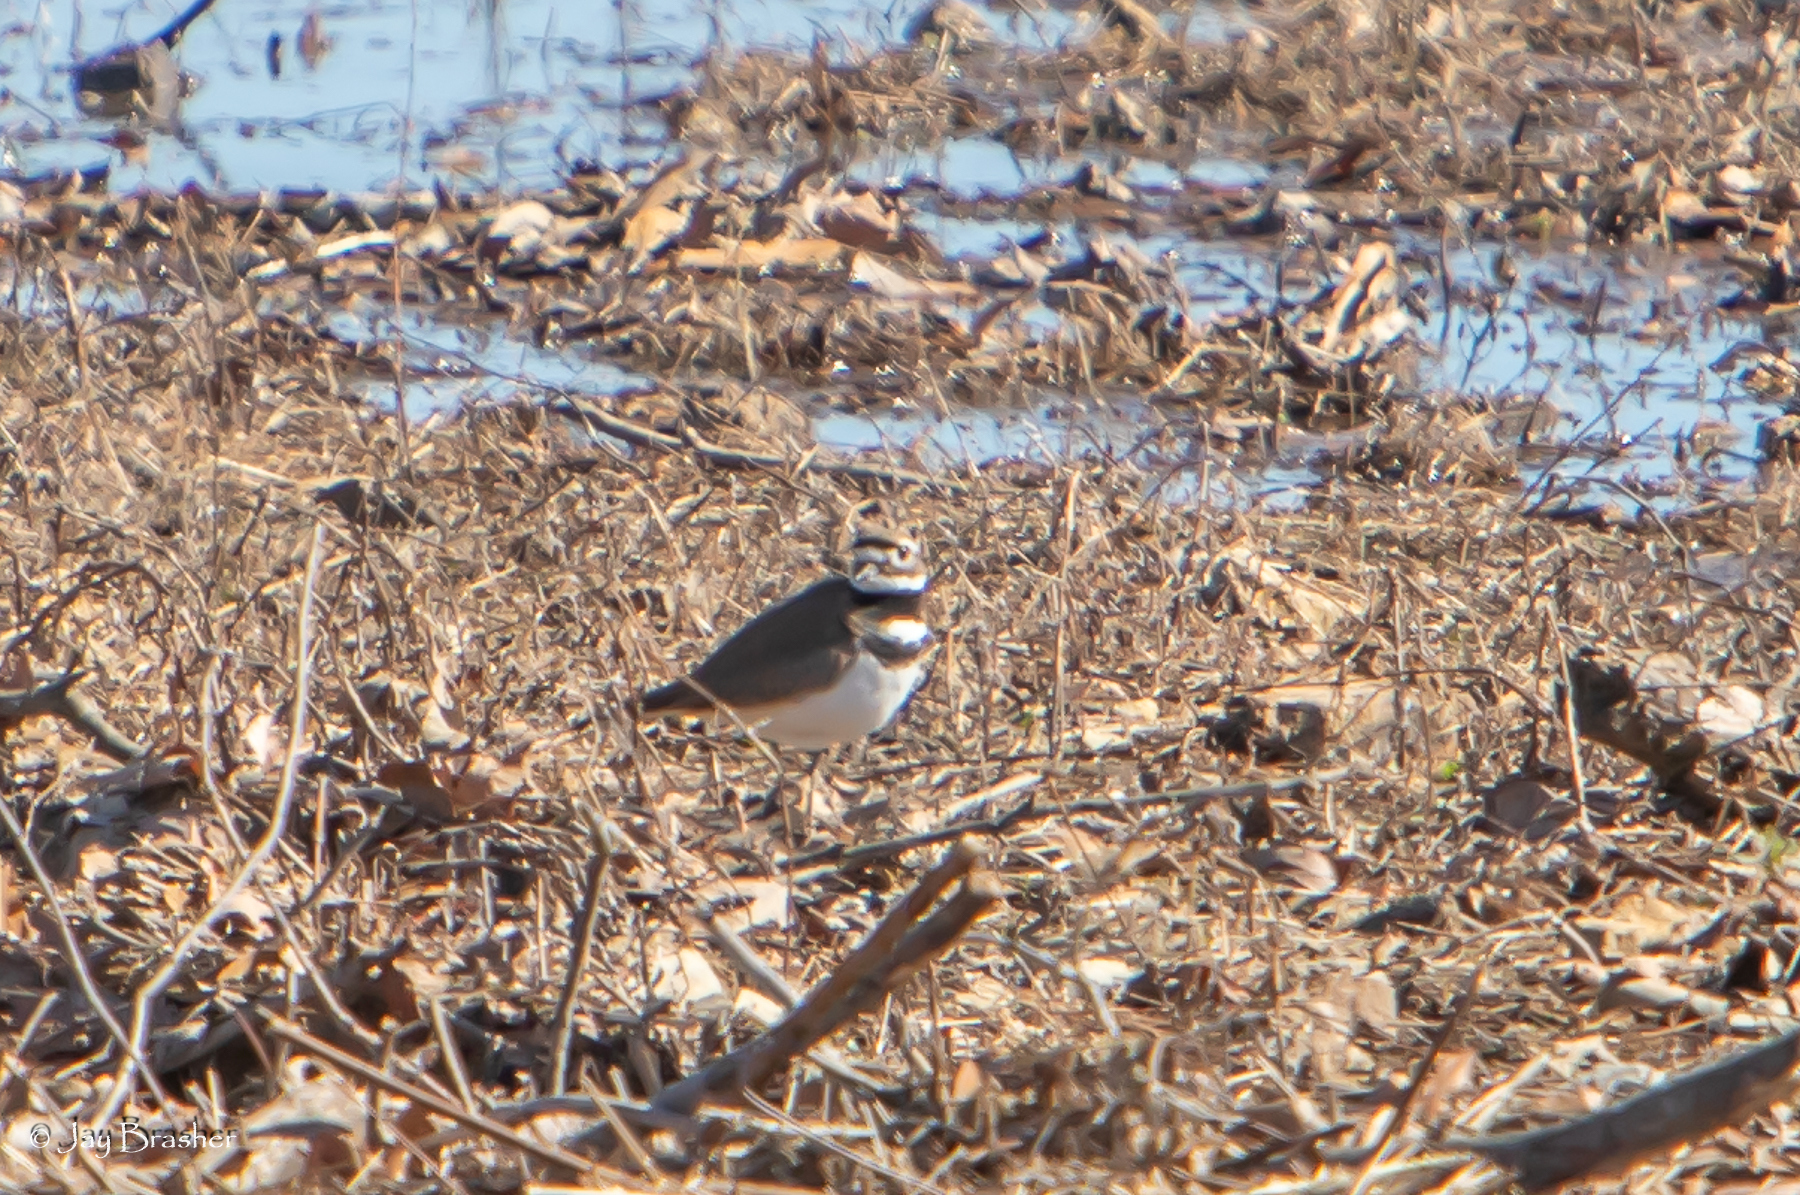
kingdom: Animalia
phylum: Chordata
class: Aves
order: Charadriiformes
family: Charadriidae
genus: Charadrius
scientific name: Charadrius vociferus
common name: Killdeer
